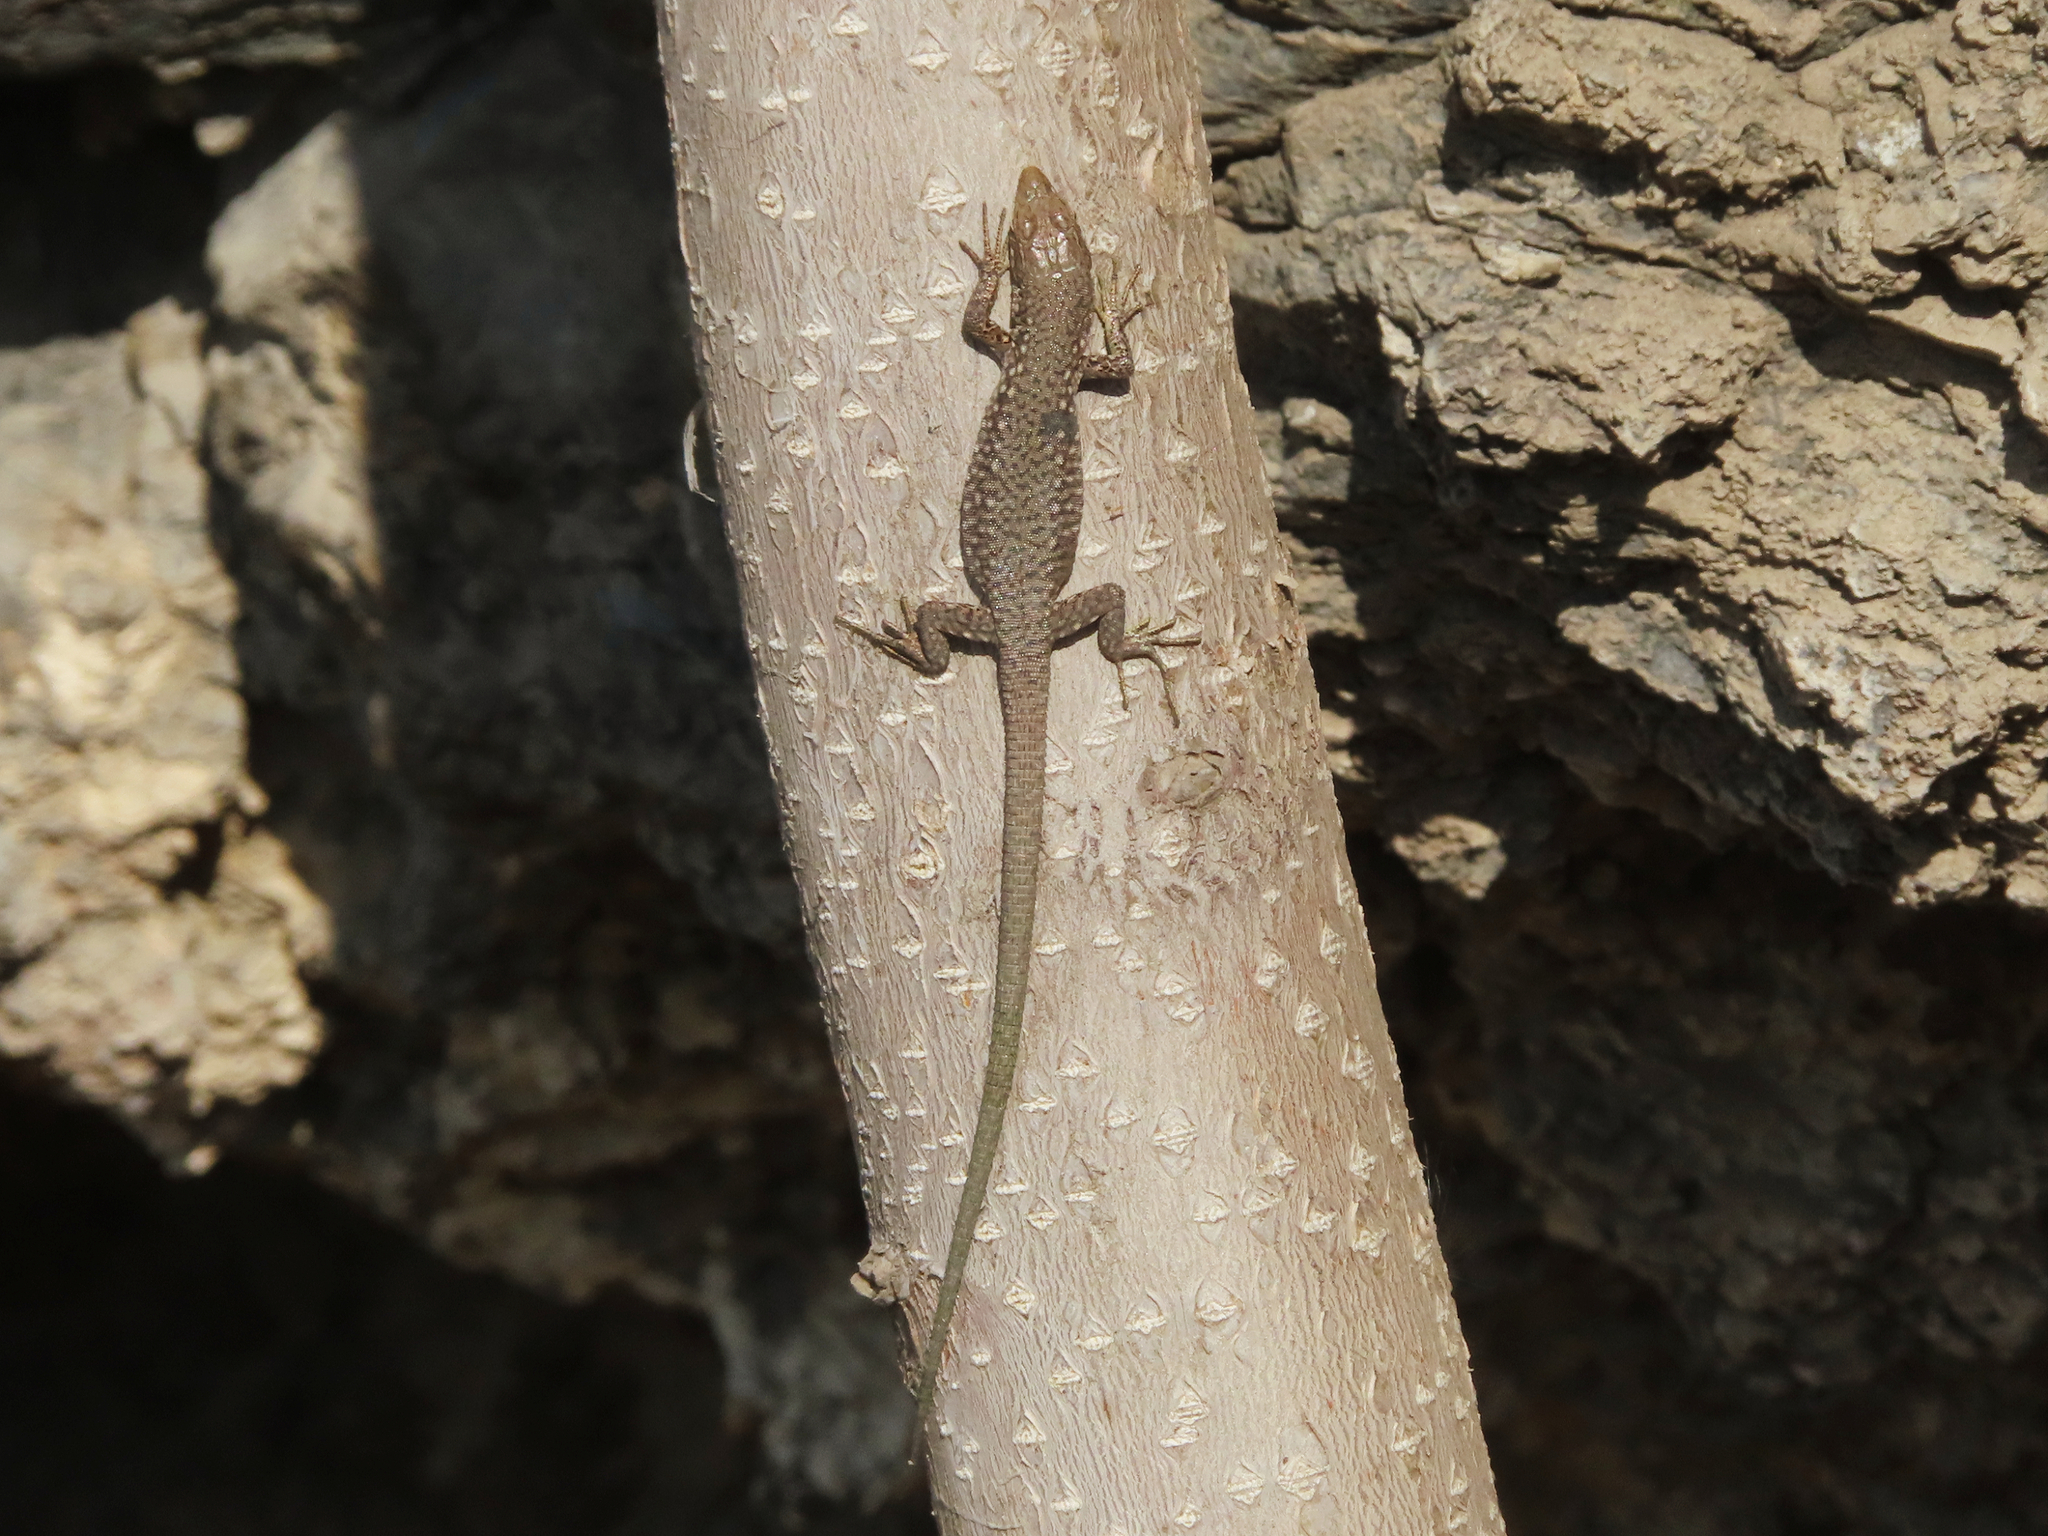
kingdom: Animalia
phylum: Chordata
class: Squamata
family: Lacertidae
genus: Darevskia
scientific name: Darevskia
